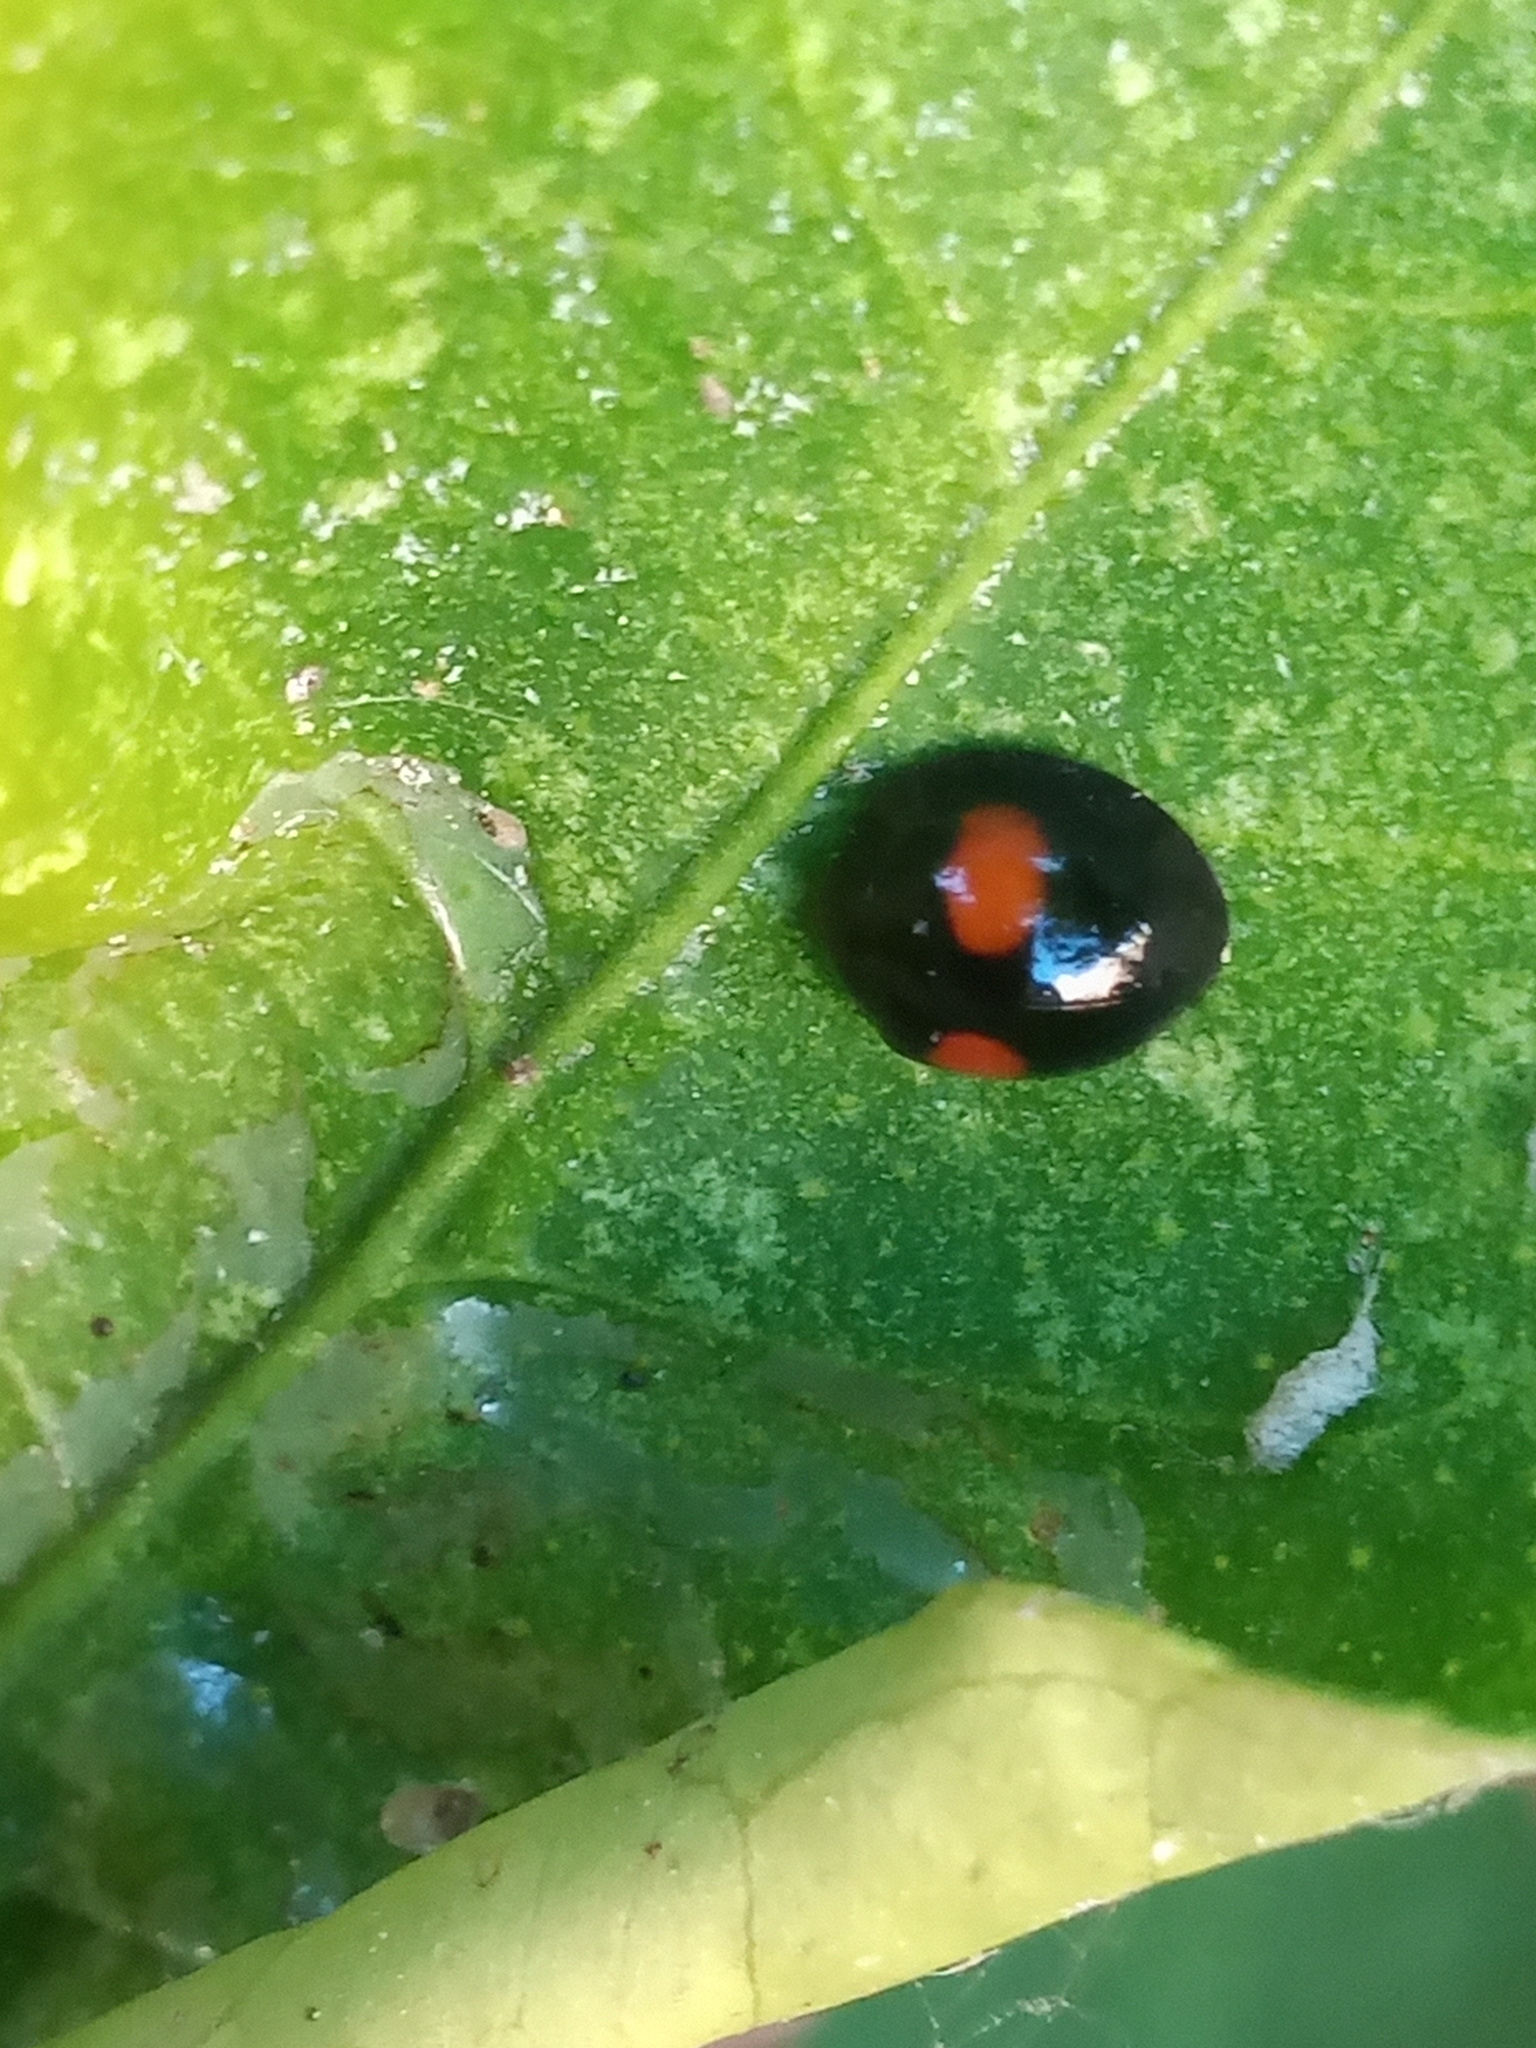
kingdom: Animalia
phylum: Arthropoda
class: Insecta
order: Coleoptera
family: Coccinellidae
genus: Chilocorus
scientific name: Chilocorus cacti
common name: Cactus lady beetle
